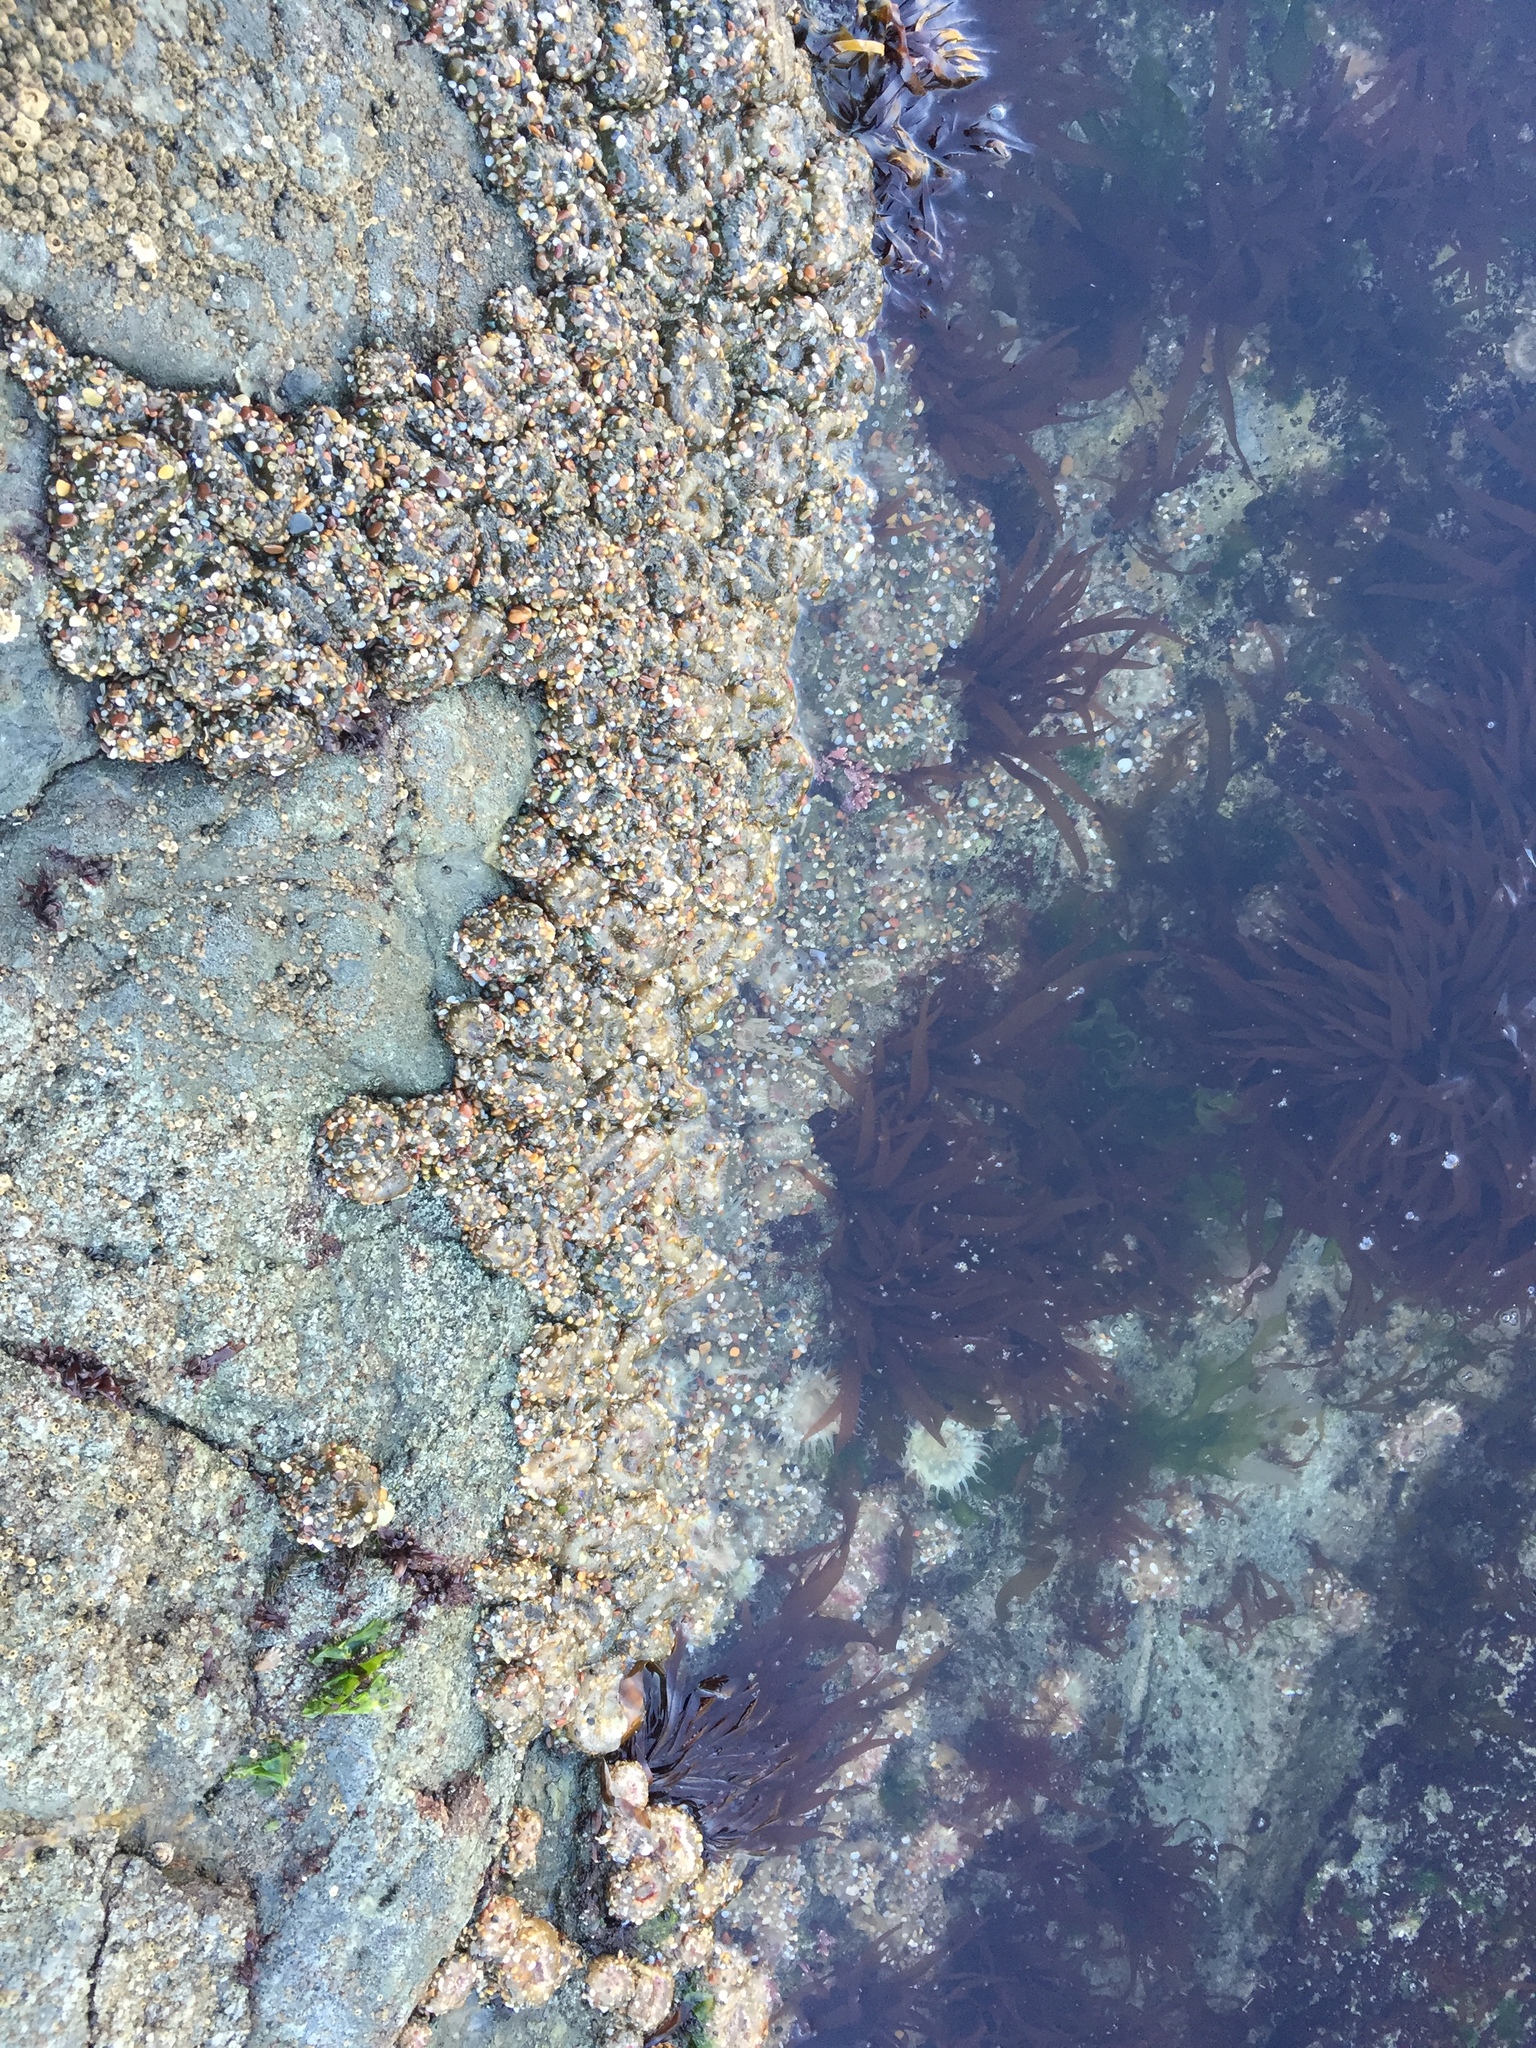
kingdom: Animalia
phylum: Cnidaria
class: Anthozoa
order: Actiniaria
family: Actiniidae
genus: Anthopleura
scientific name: Anthopleura elegantissima
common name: Clonal anemone
